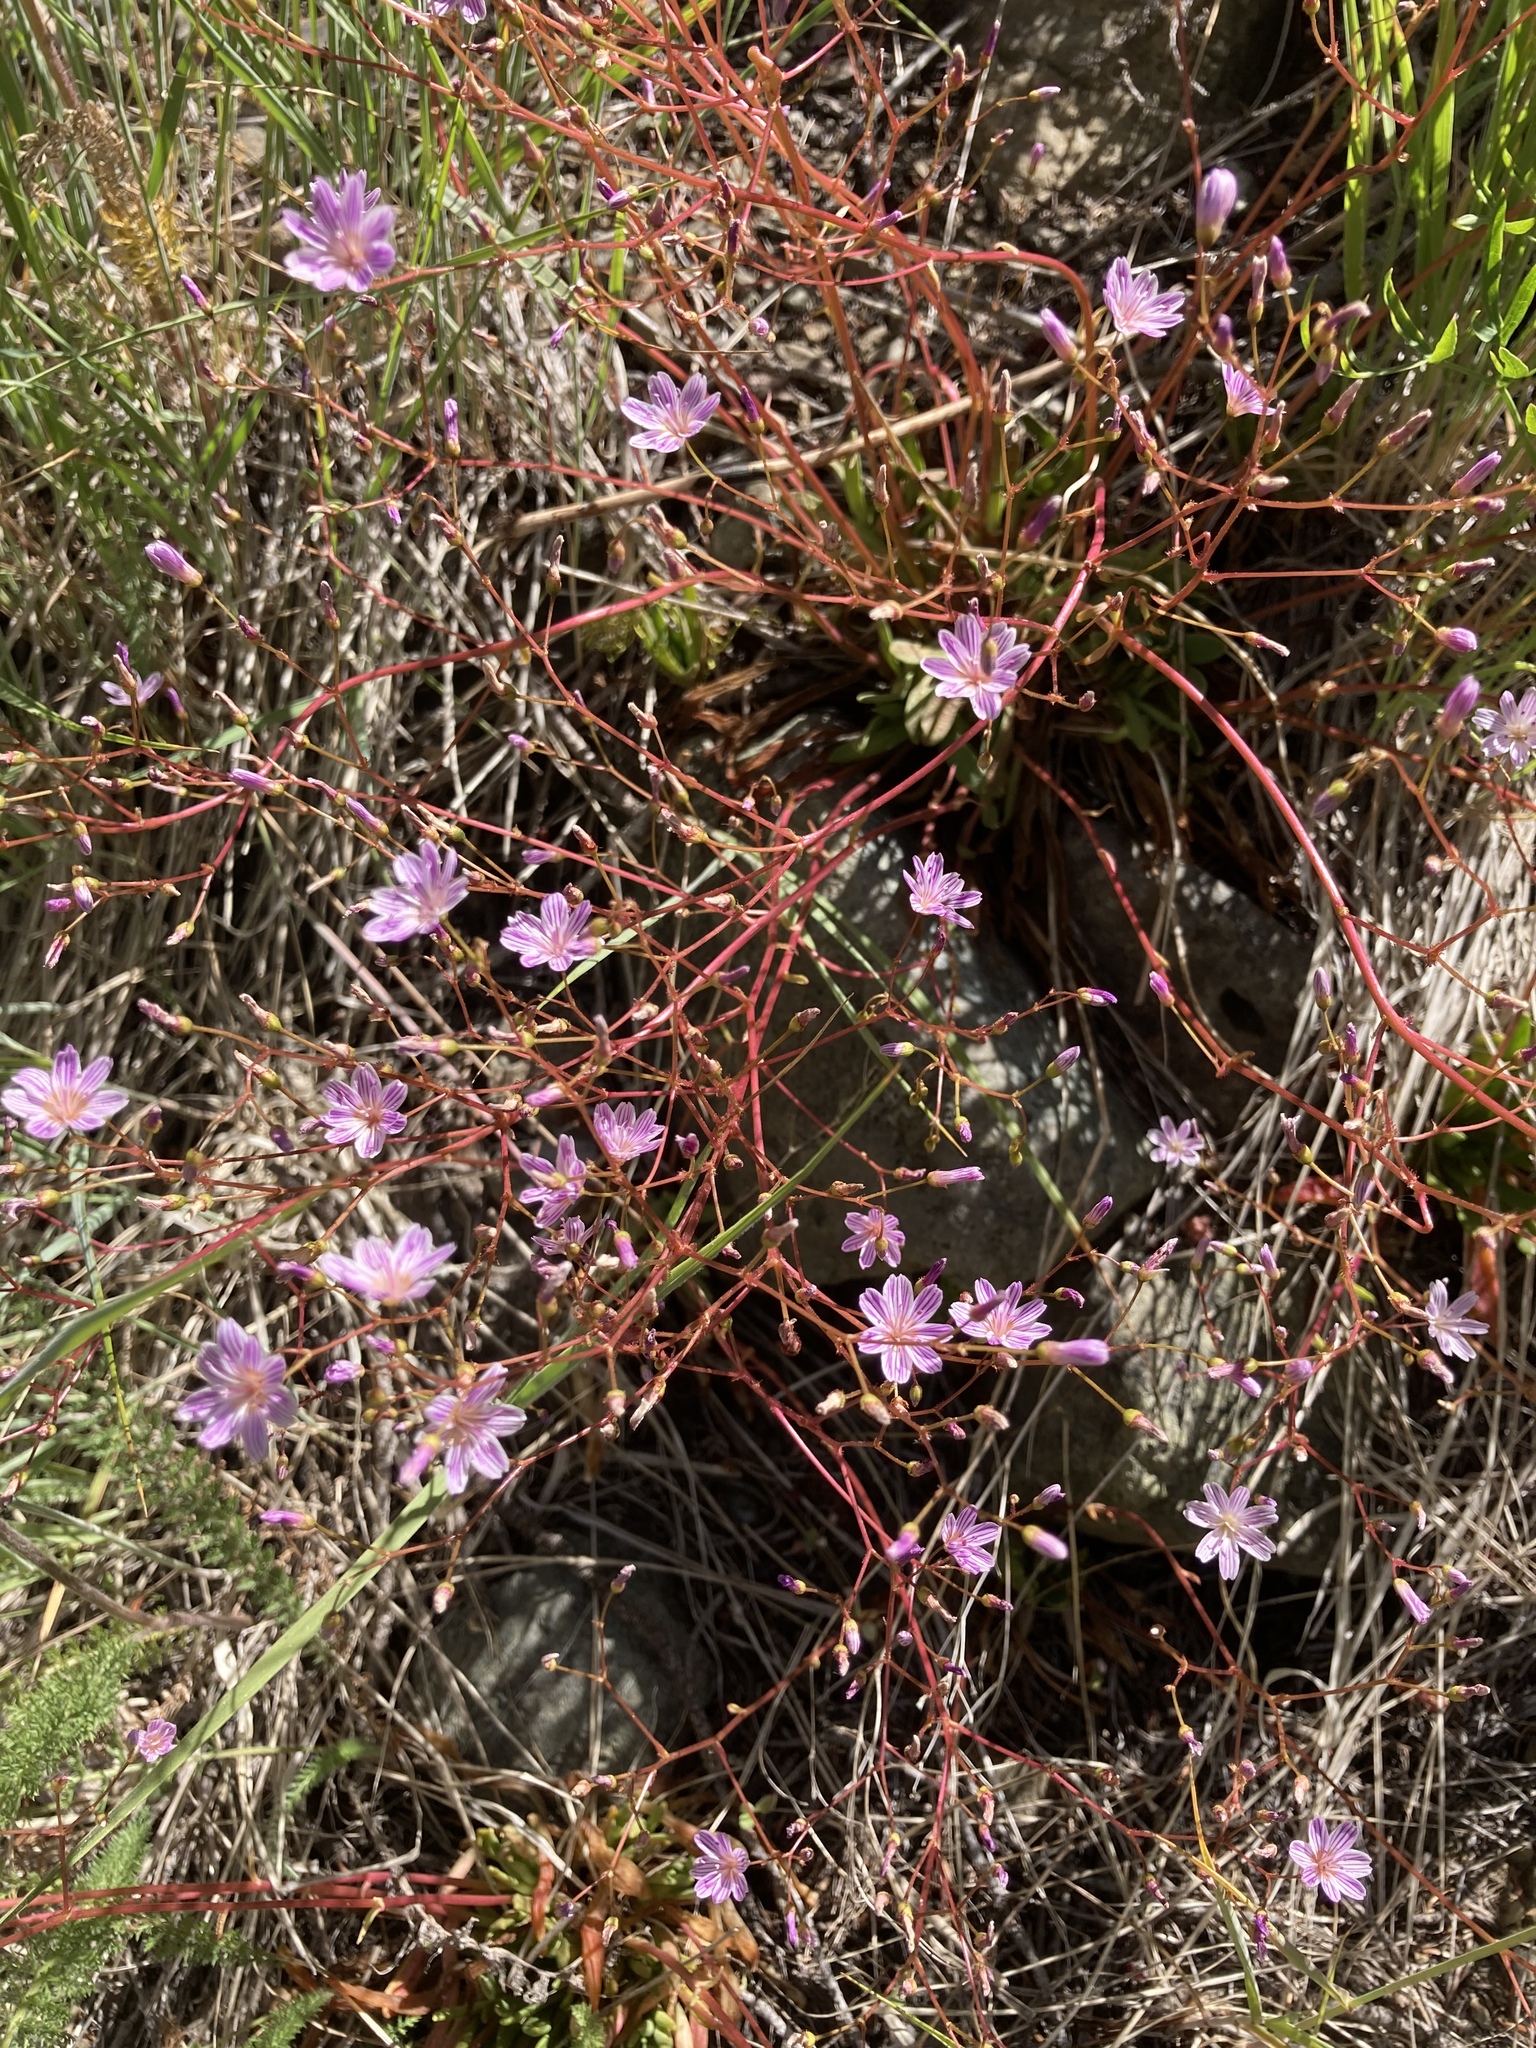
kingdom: Plantae
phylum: Tracheophyta
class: Magnoliopsida
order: Caryophyllales
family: Montiaceae
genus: Lewisia
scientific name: Lewisia columbiana
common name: Columbia lewisia
